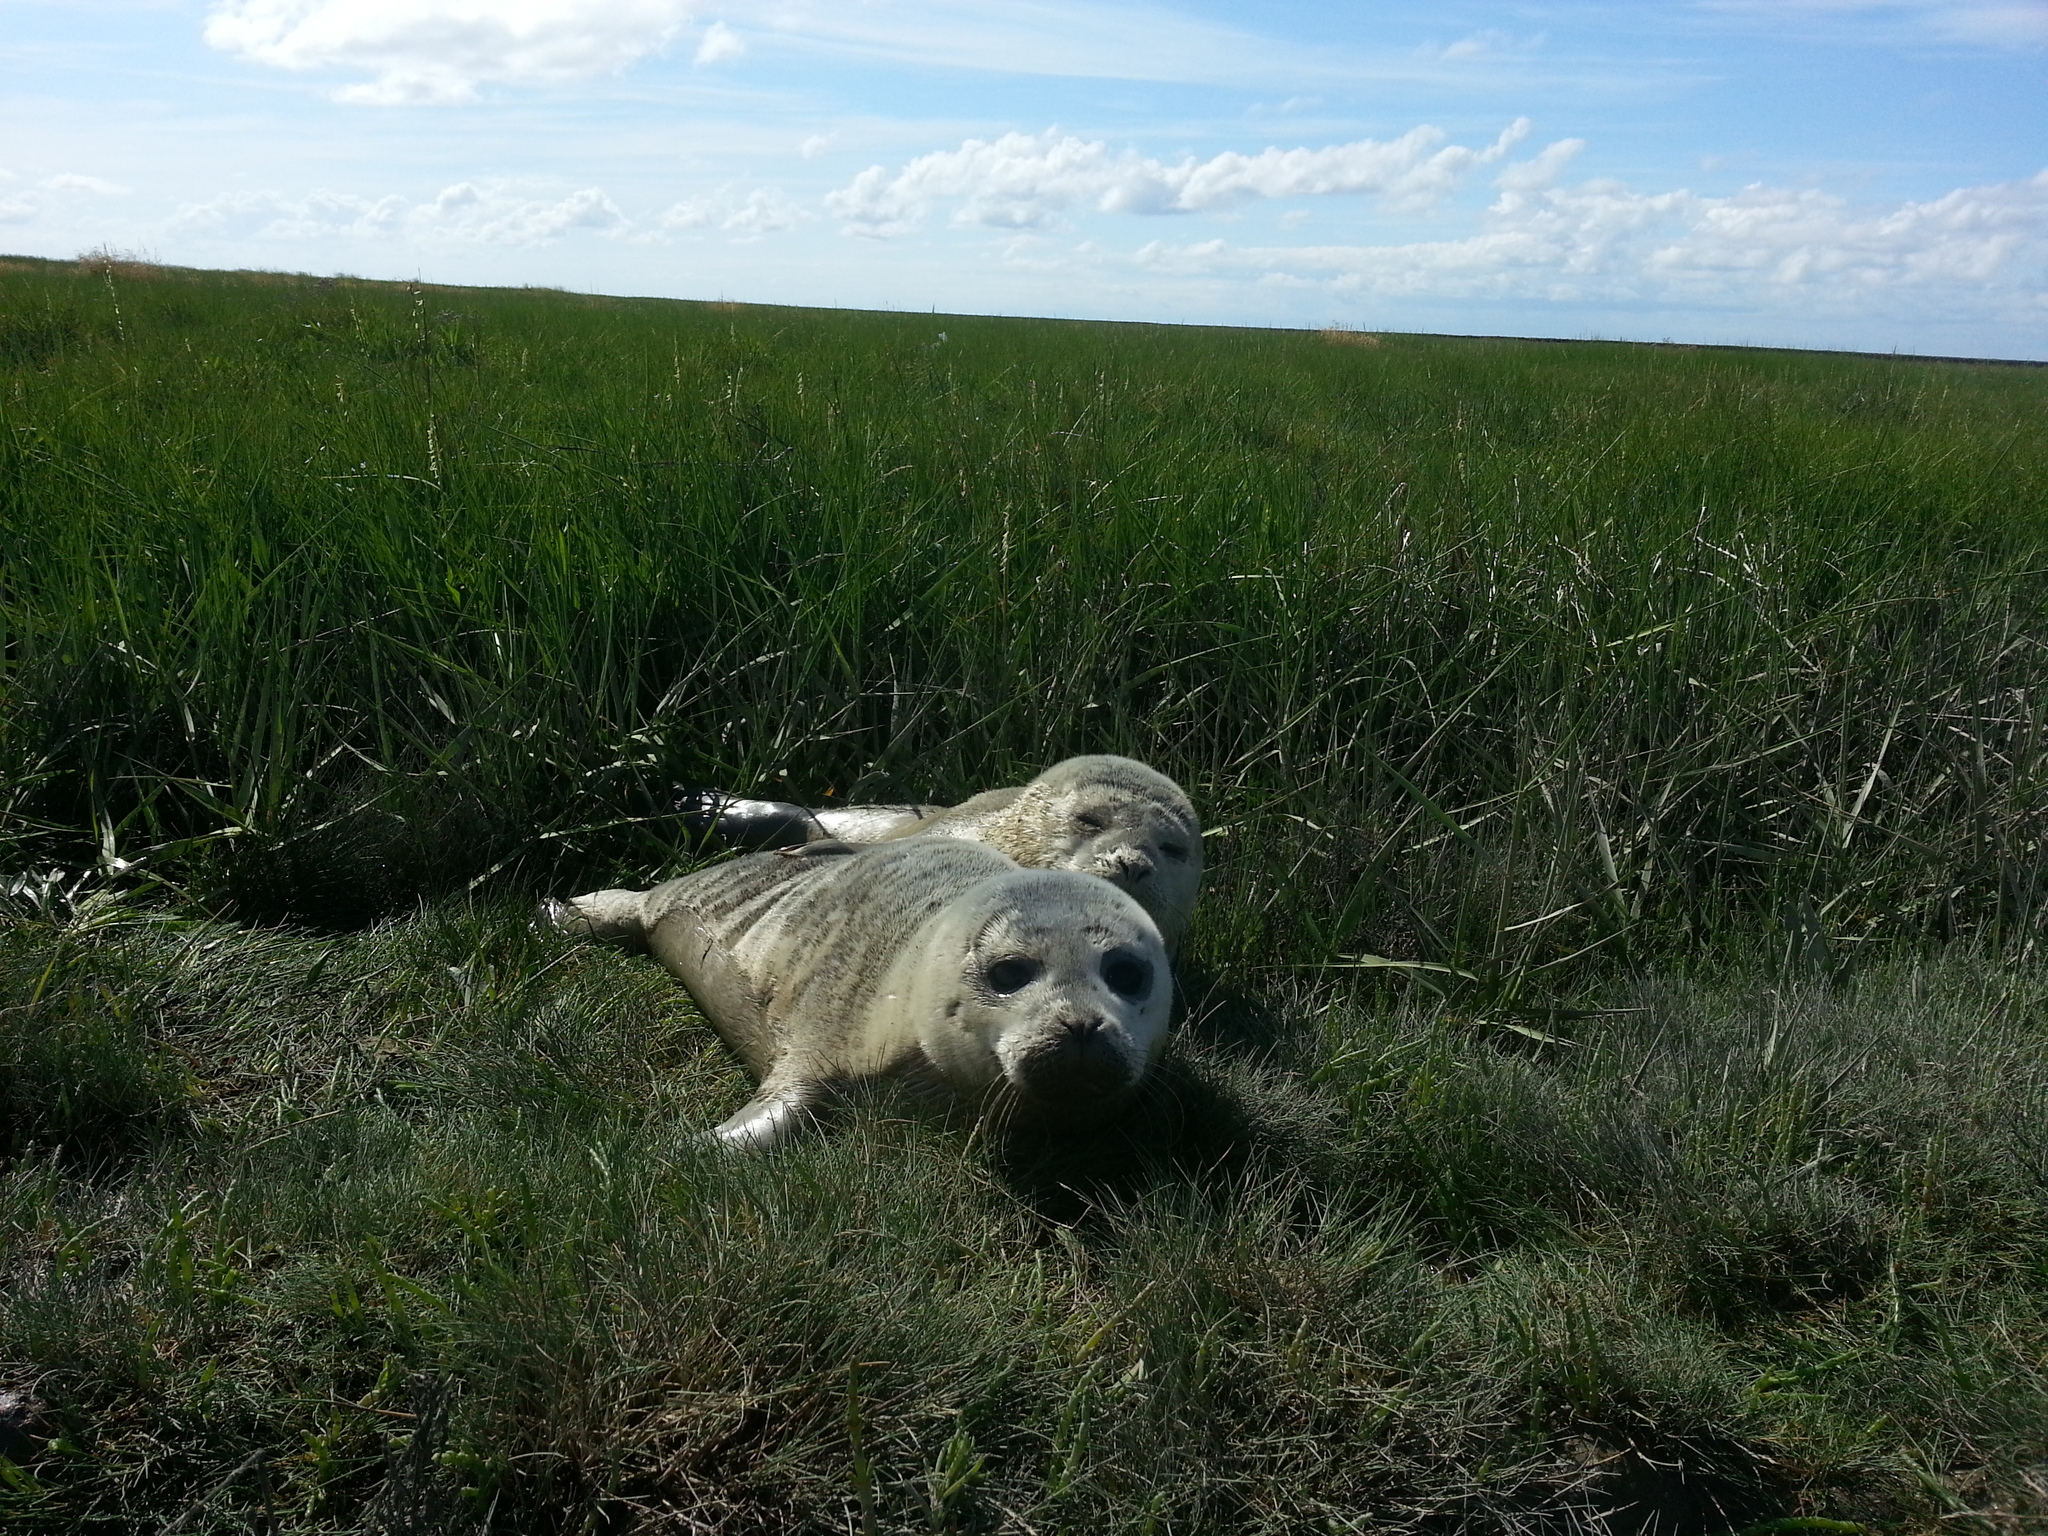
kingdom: Animalia
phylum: Chordata
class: Mammalia
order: Carnivora
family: Phocidae
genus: Phoca
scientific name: Phoca vitulina
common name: Harbor seal
